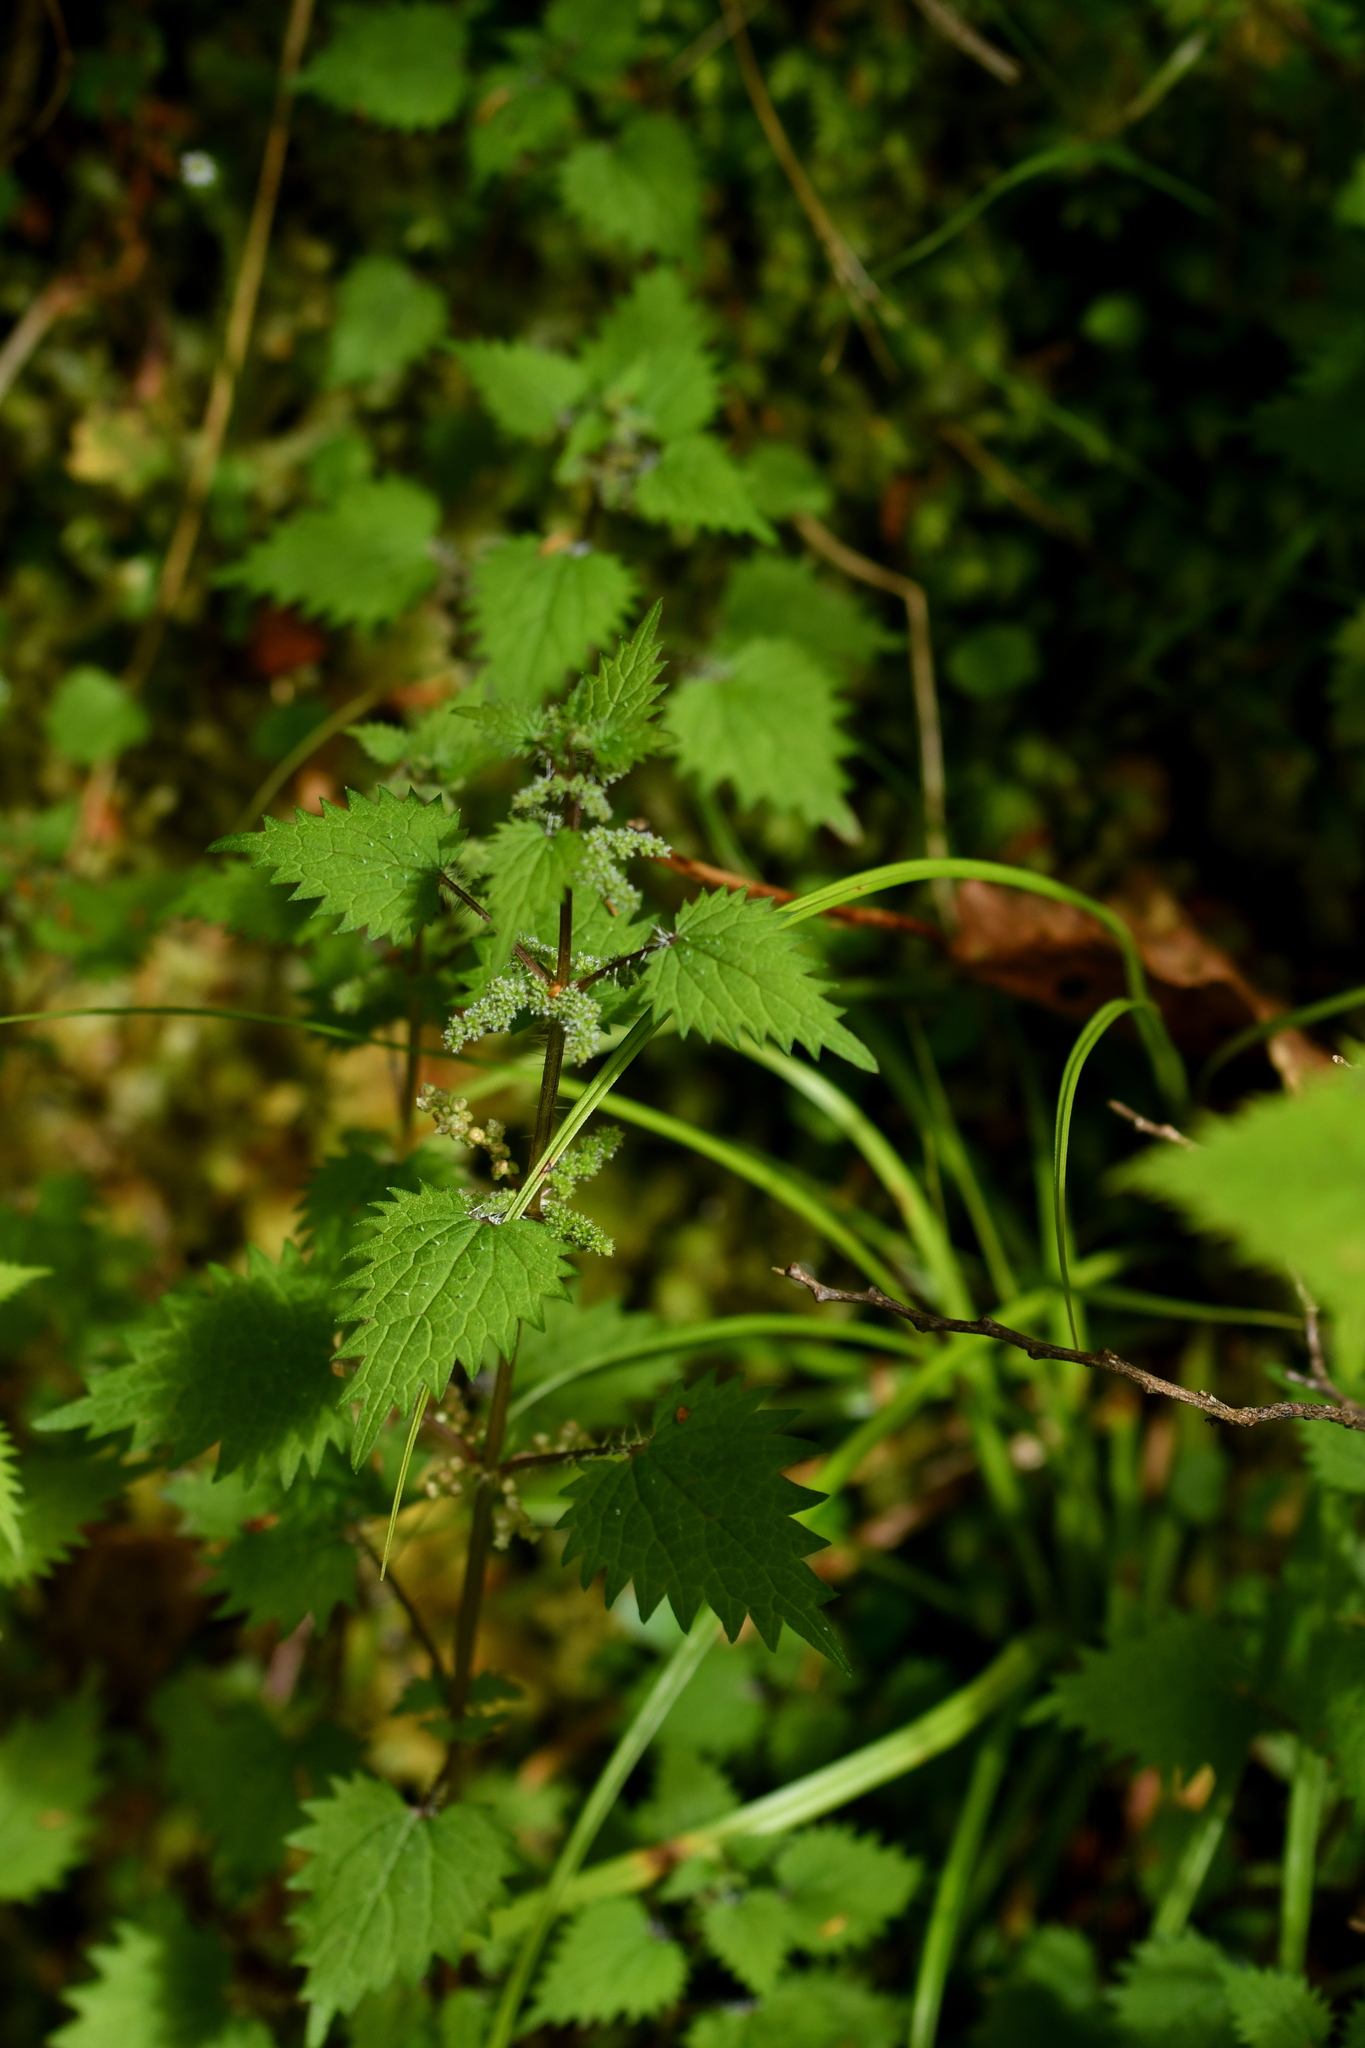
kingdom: Plantae
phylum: Tracheophyta
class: Magnoliopsida
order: Rosales
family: Urticaceae
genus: Urtica
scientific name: Urtica sykesii
